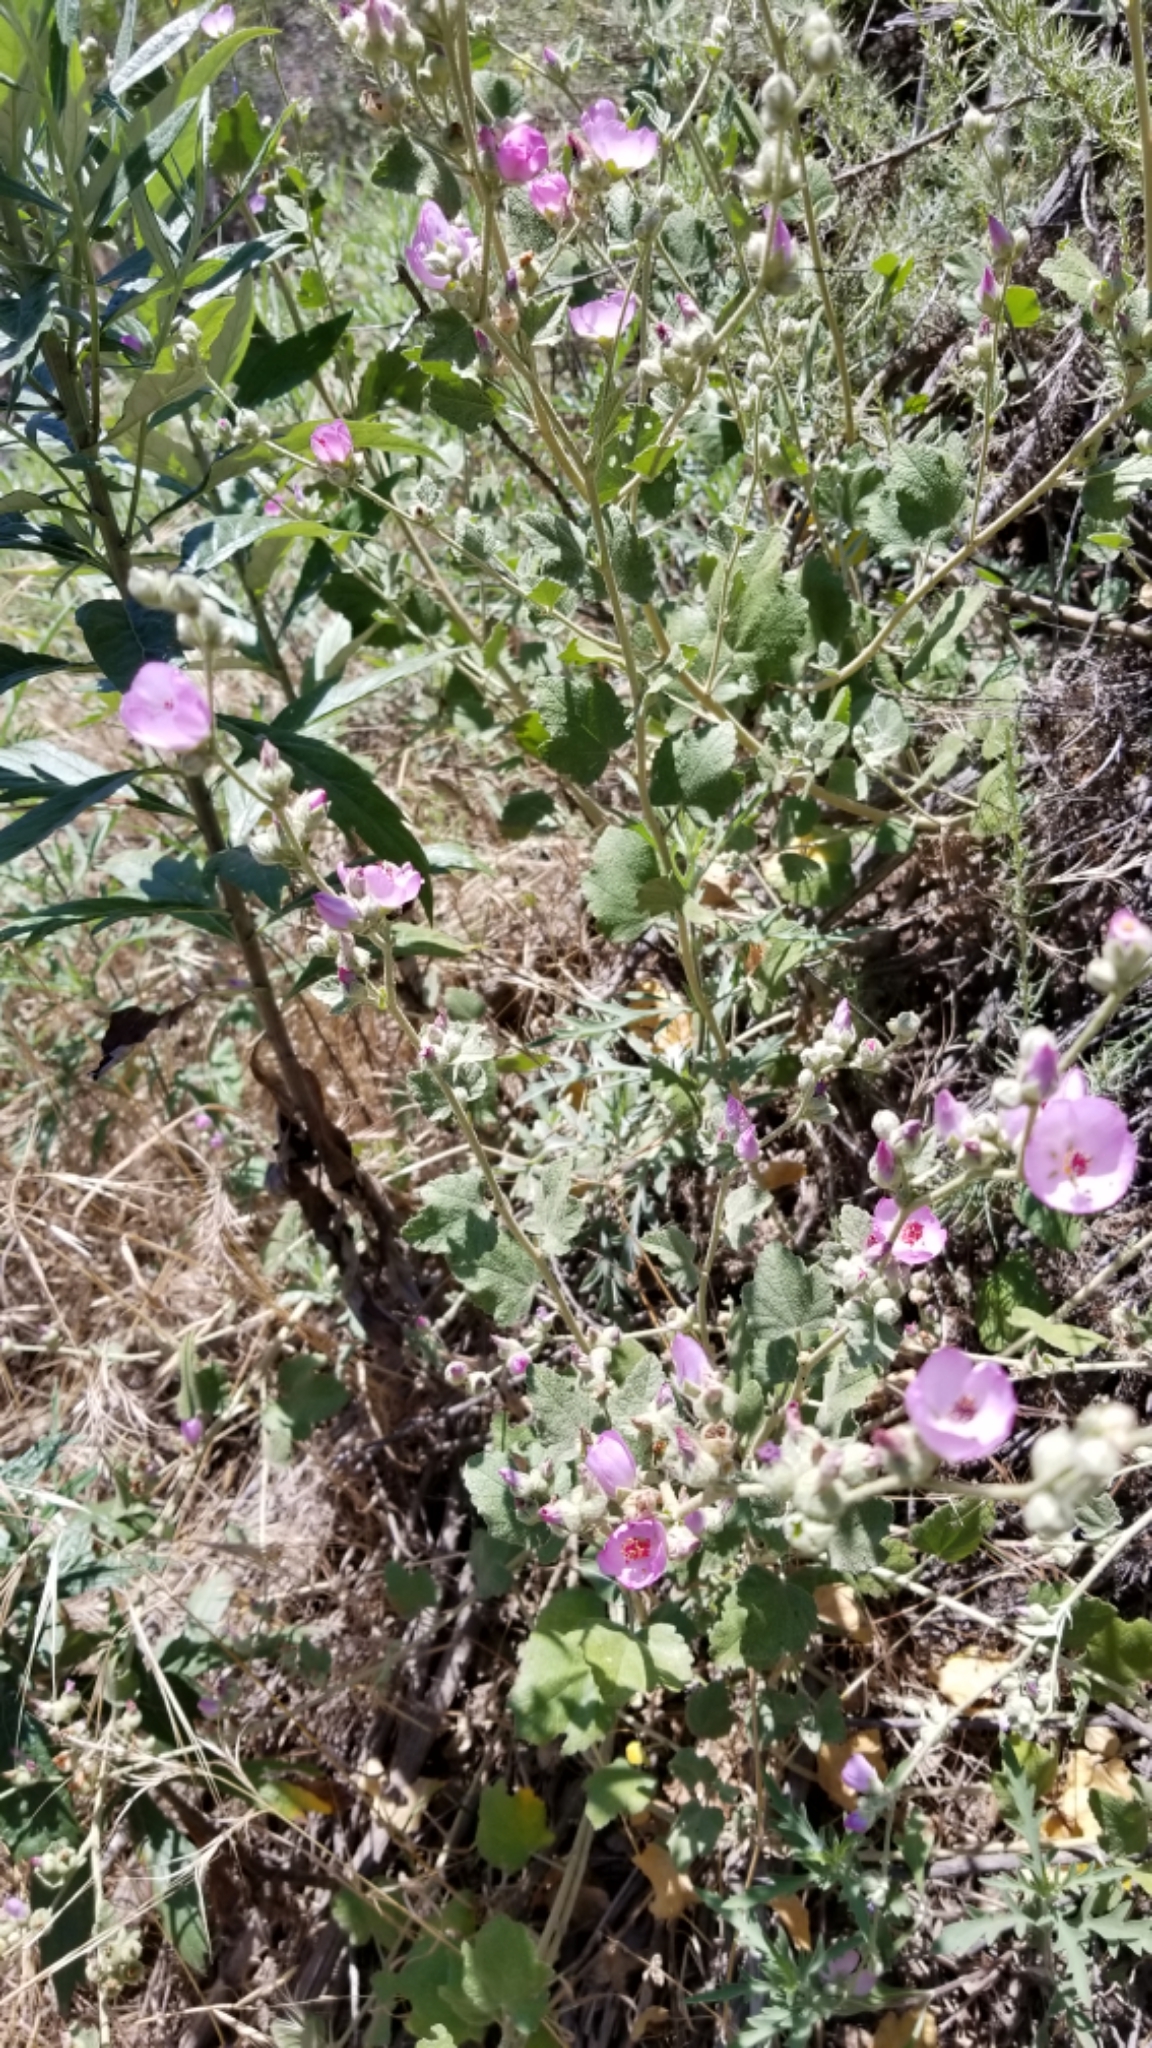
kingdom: Plantae
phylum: Tracheophyta
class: Magnoliopsida
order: Malvales
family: Malvaceae
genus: Malacothamnus
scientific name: Malacothamnus fasciculatus
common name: Sant cruz island bush-mallow
